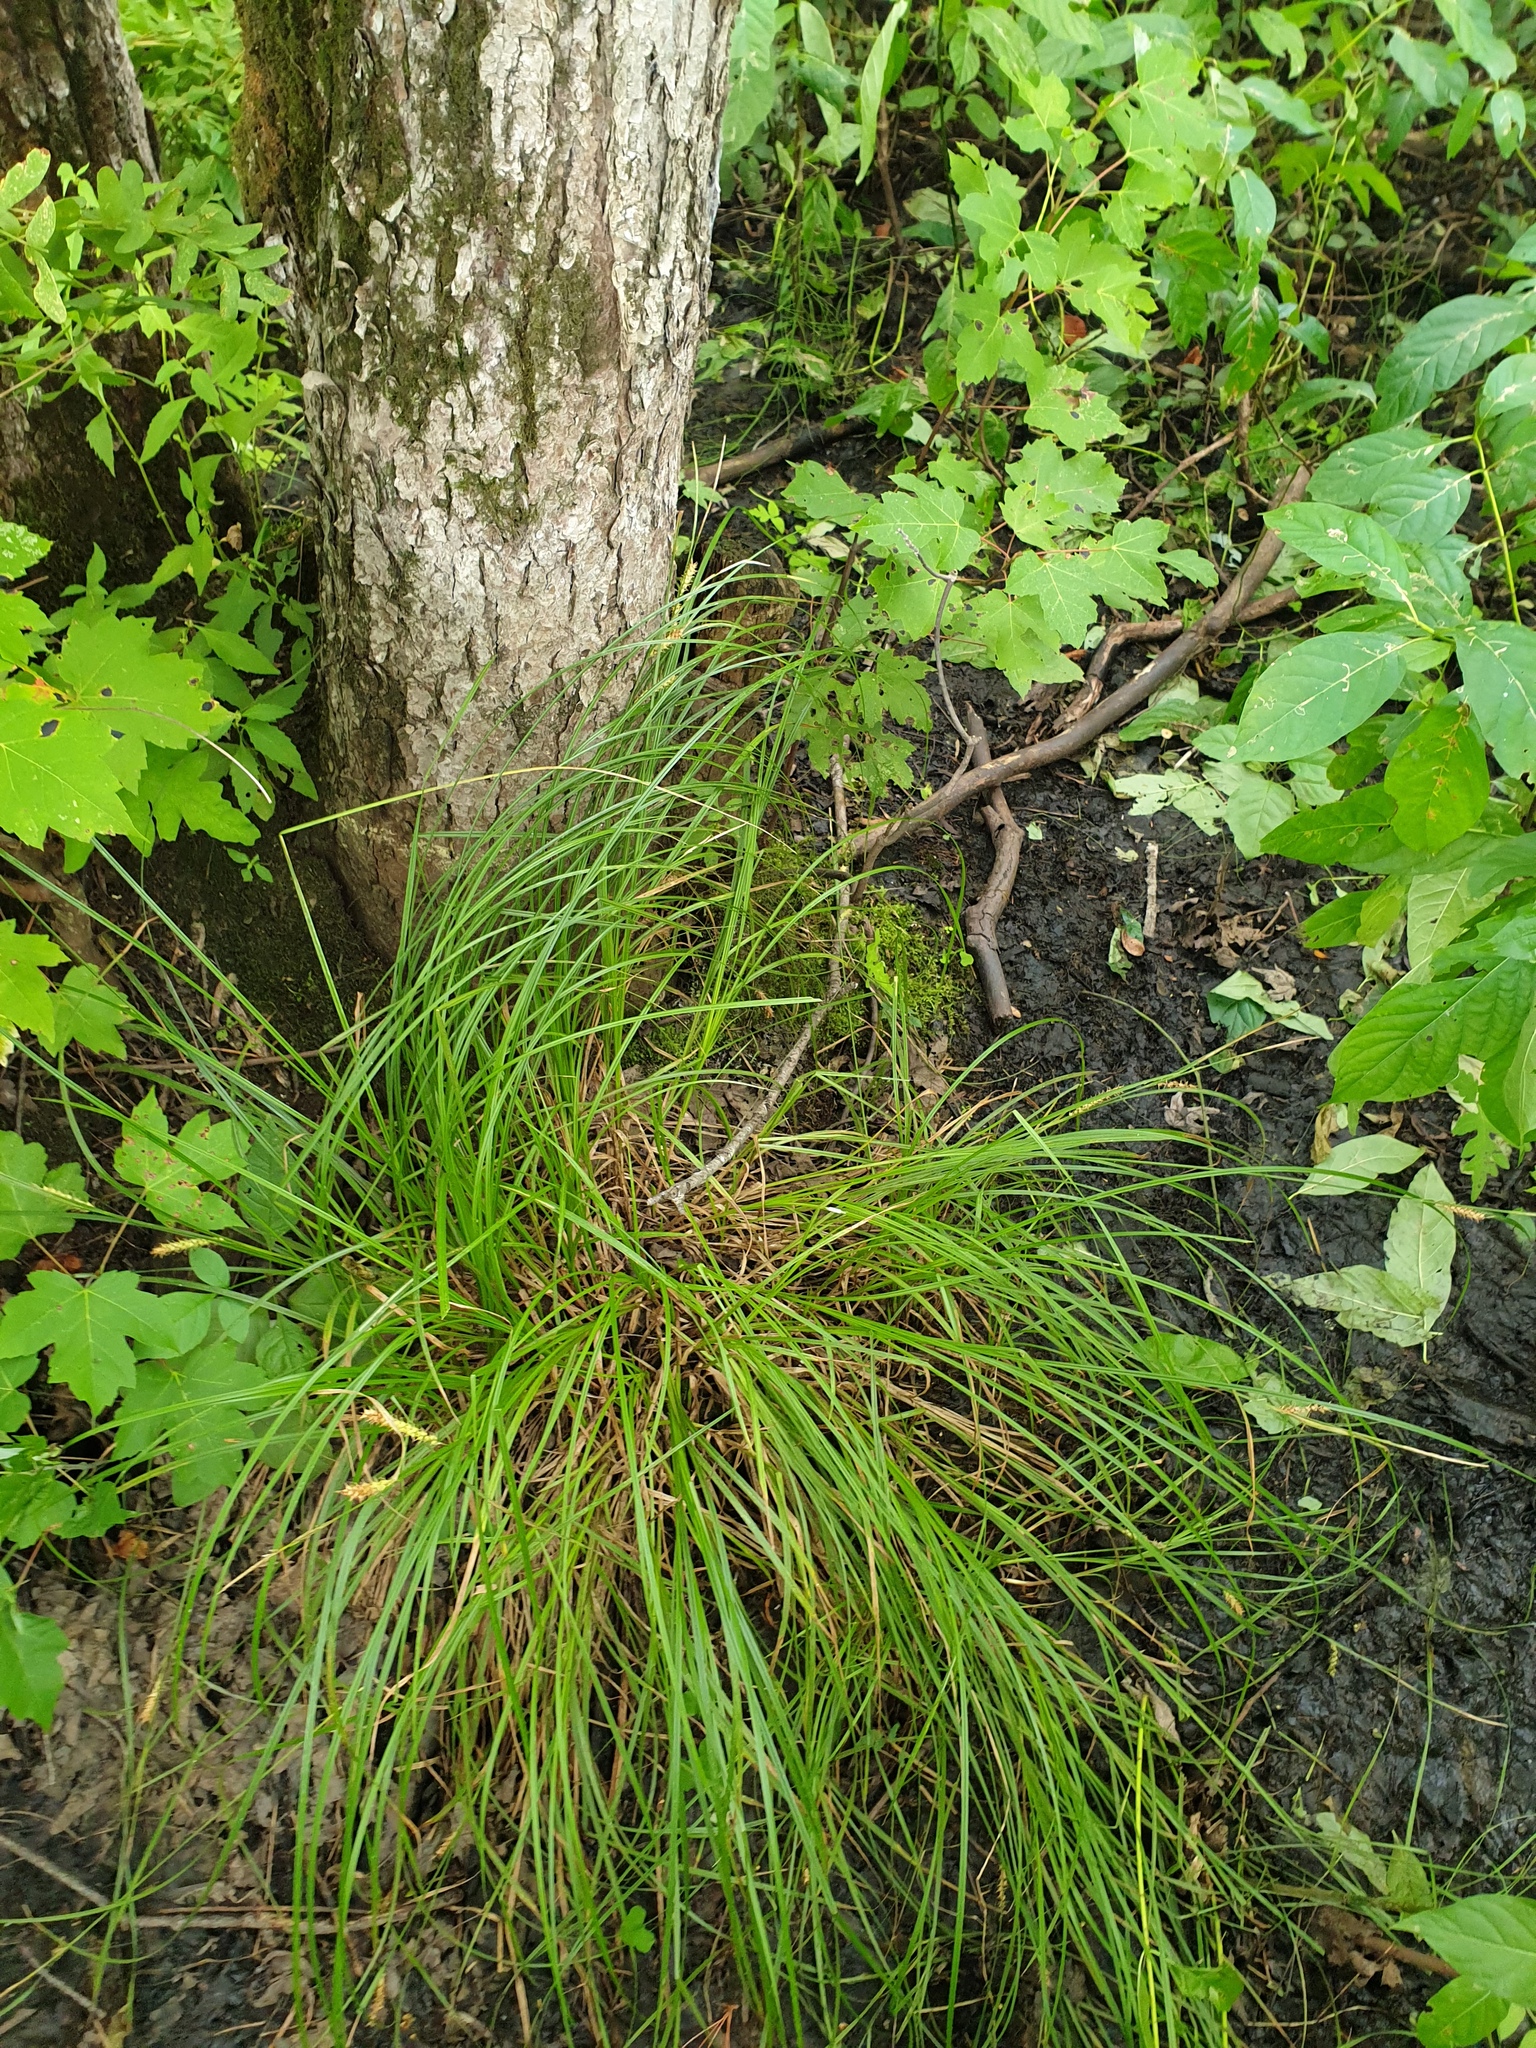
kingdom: Plantae
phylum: Tracheophyta
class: Liliopsida
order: Poales
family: Cyperaceae
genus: Carex
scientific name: Carex vesicaria
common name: Bladder-sedge
